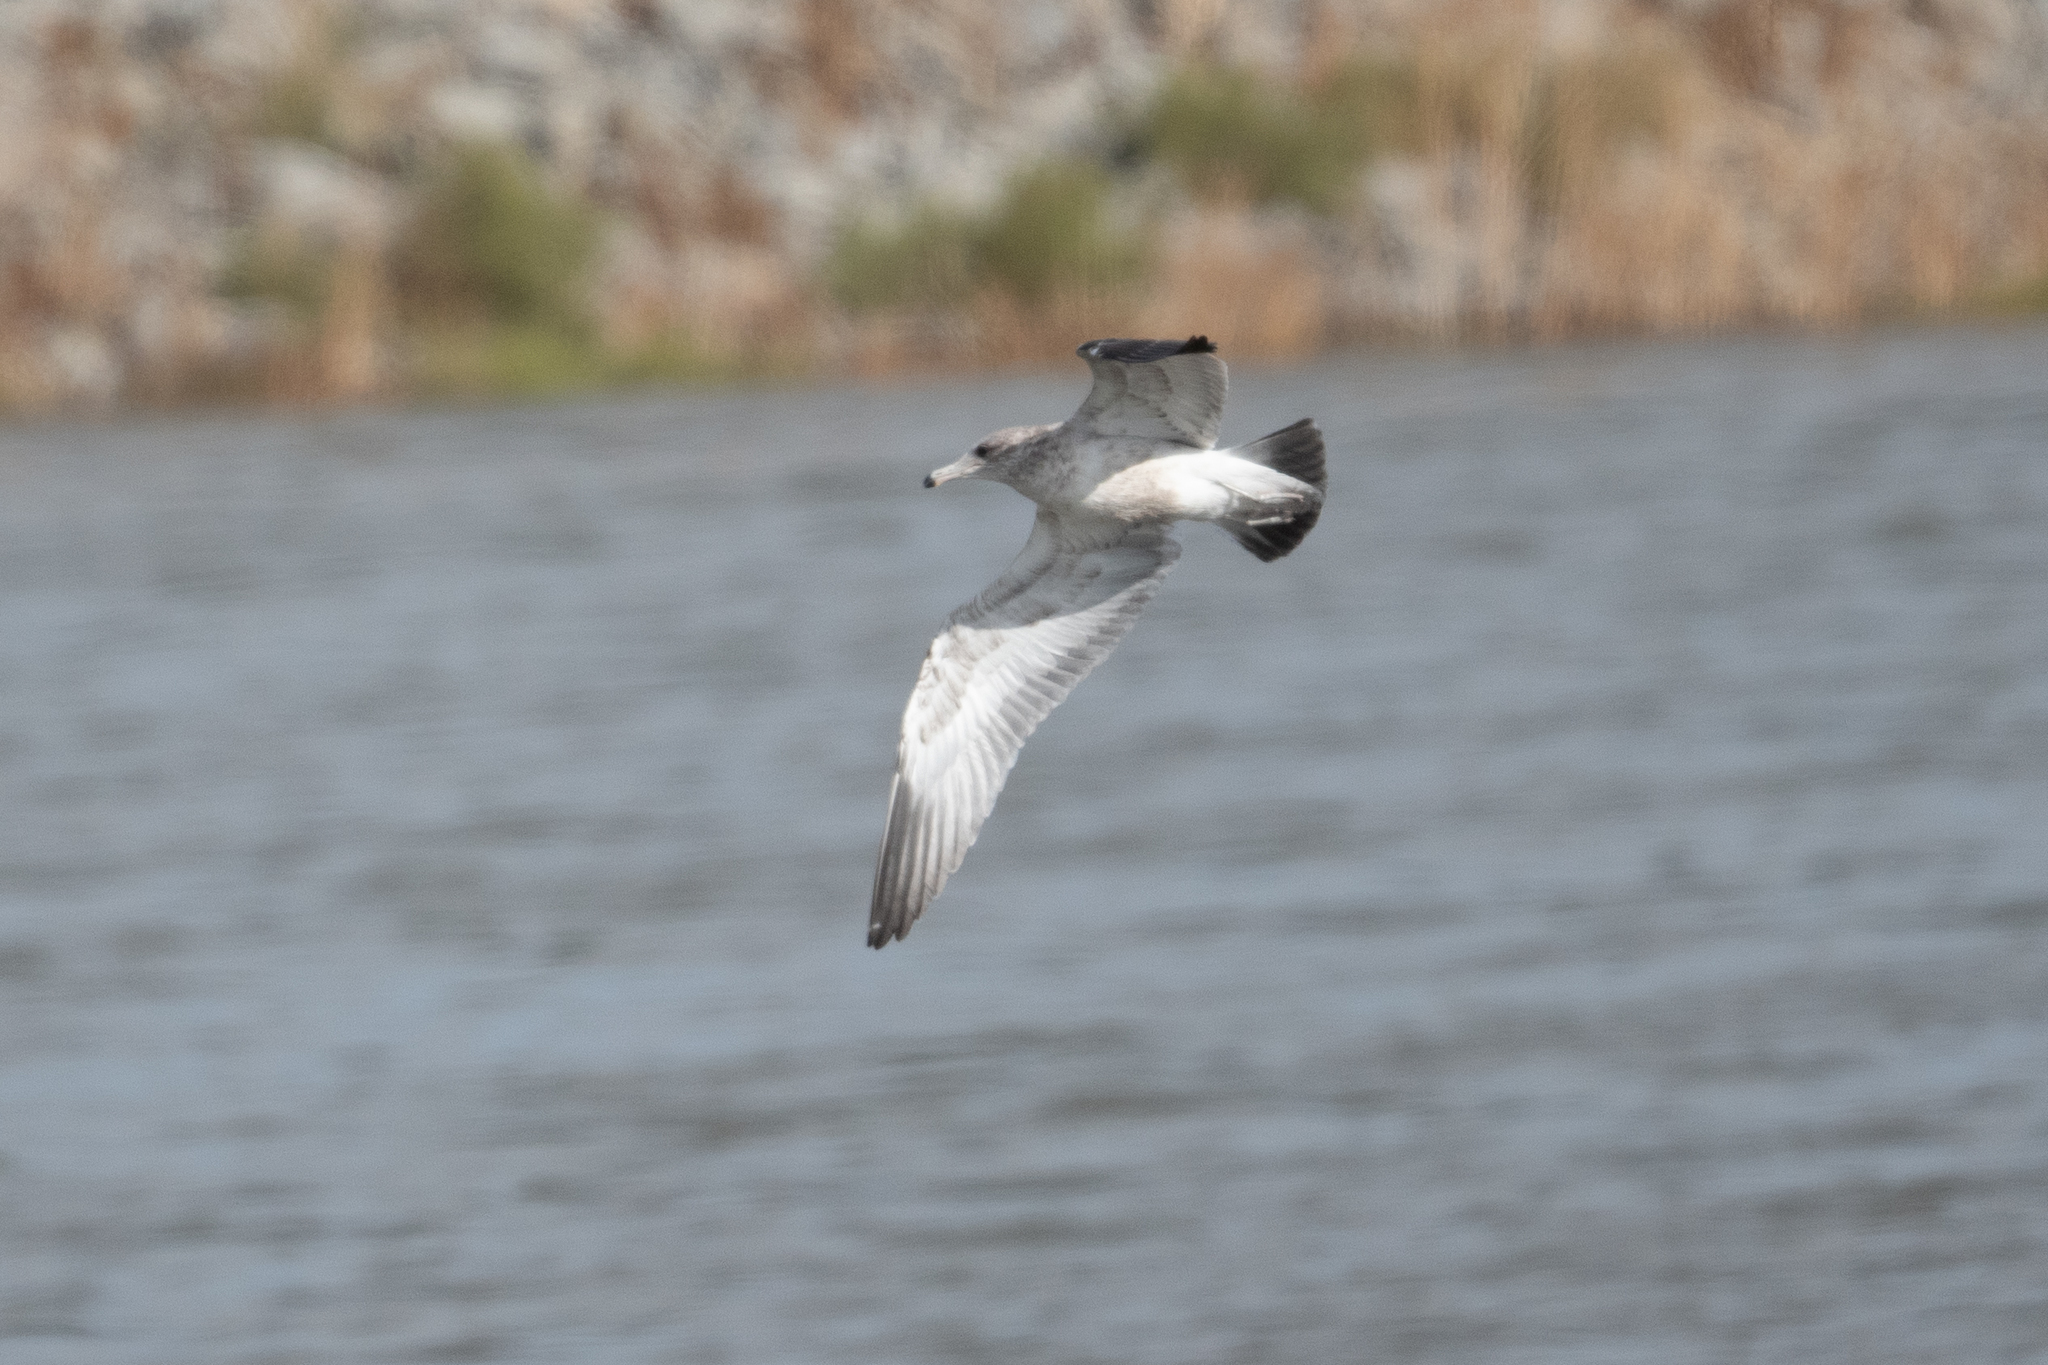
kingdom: Animalia
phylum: Chordata
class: Aves
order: Charadriiformes
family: Laridae
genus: Larus
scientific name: Larus californicus
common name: California gull
